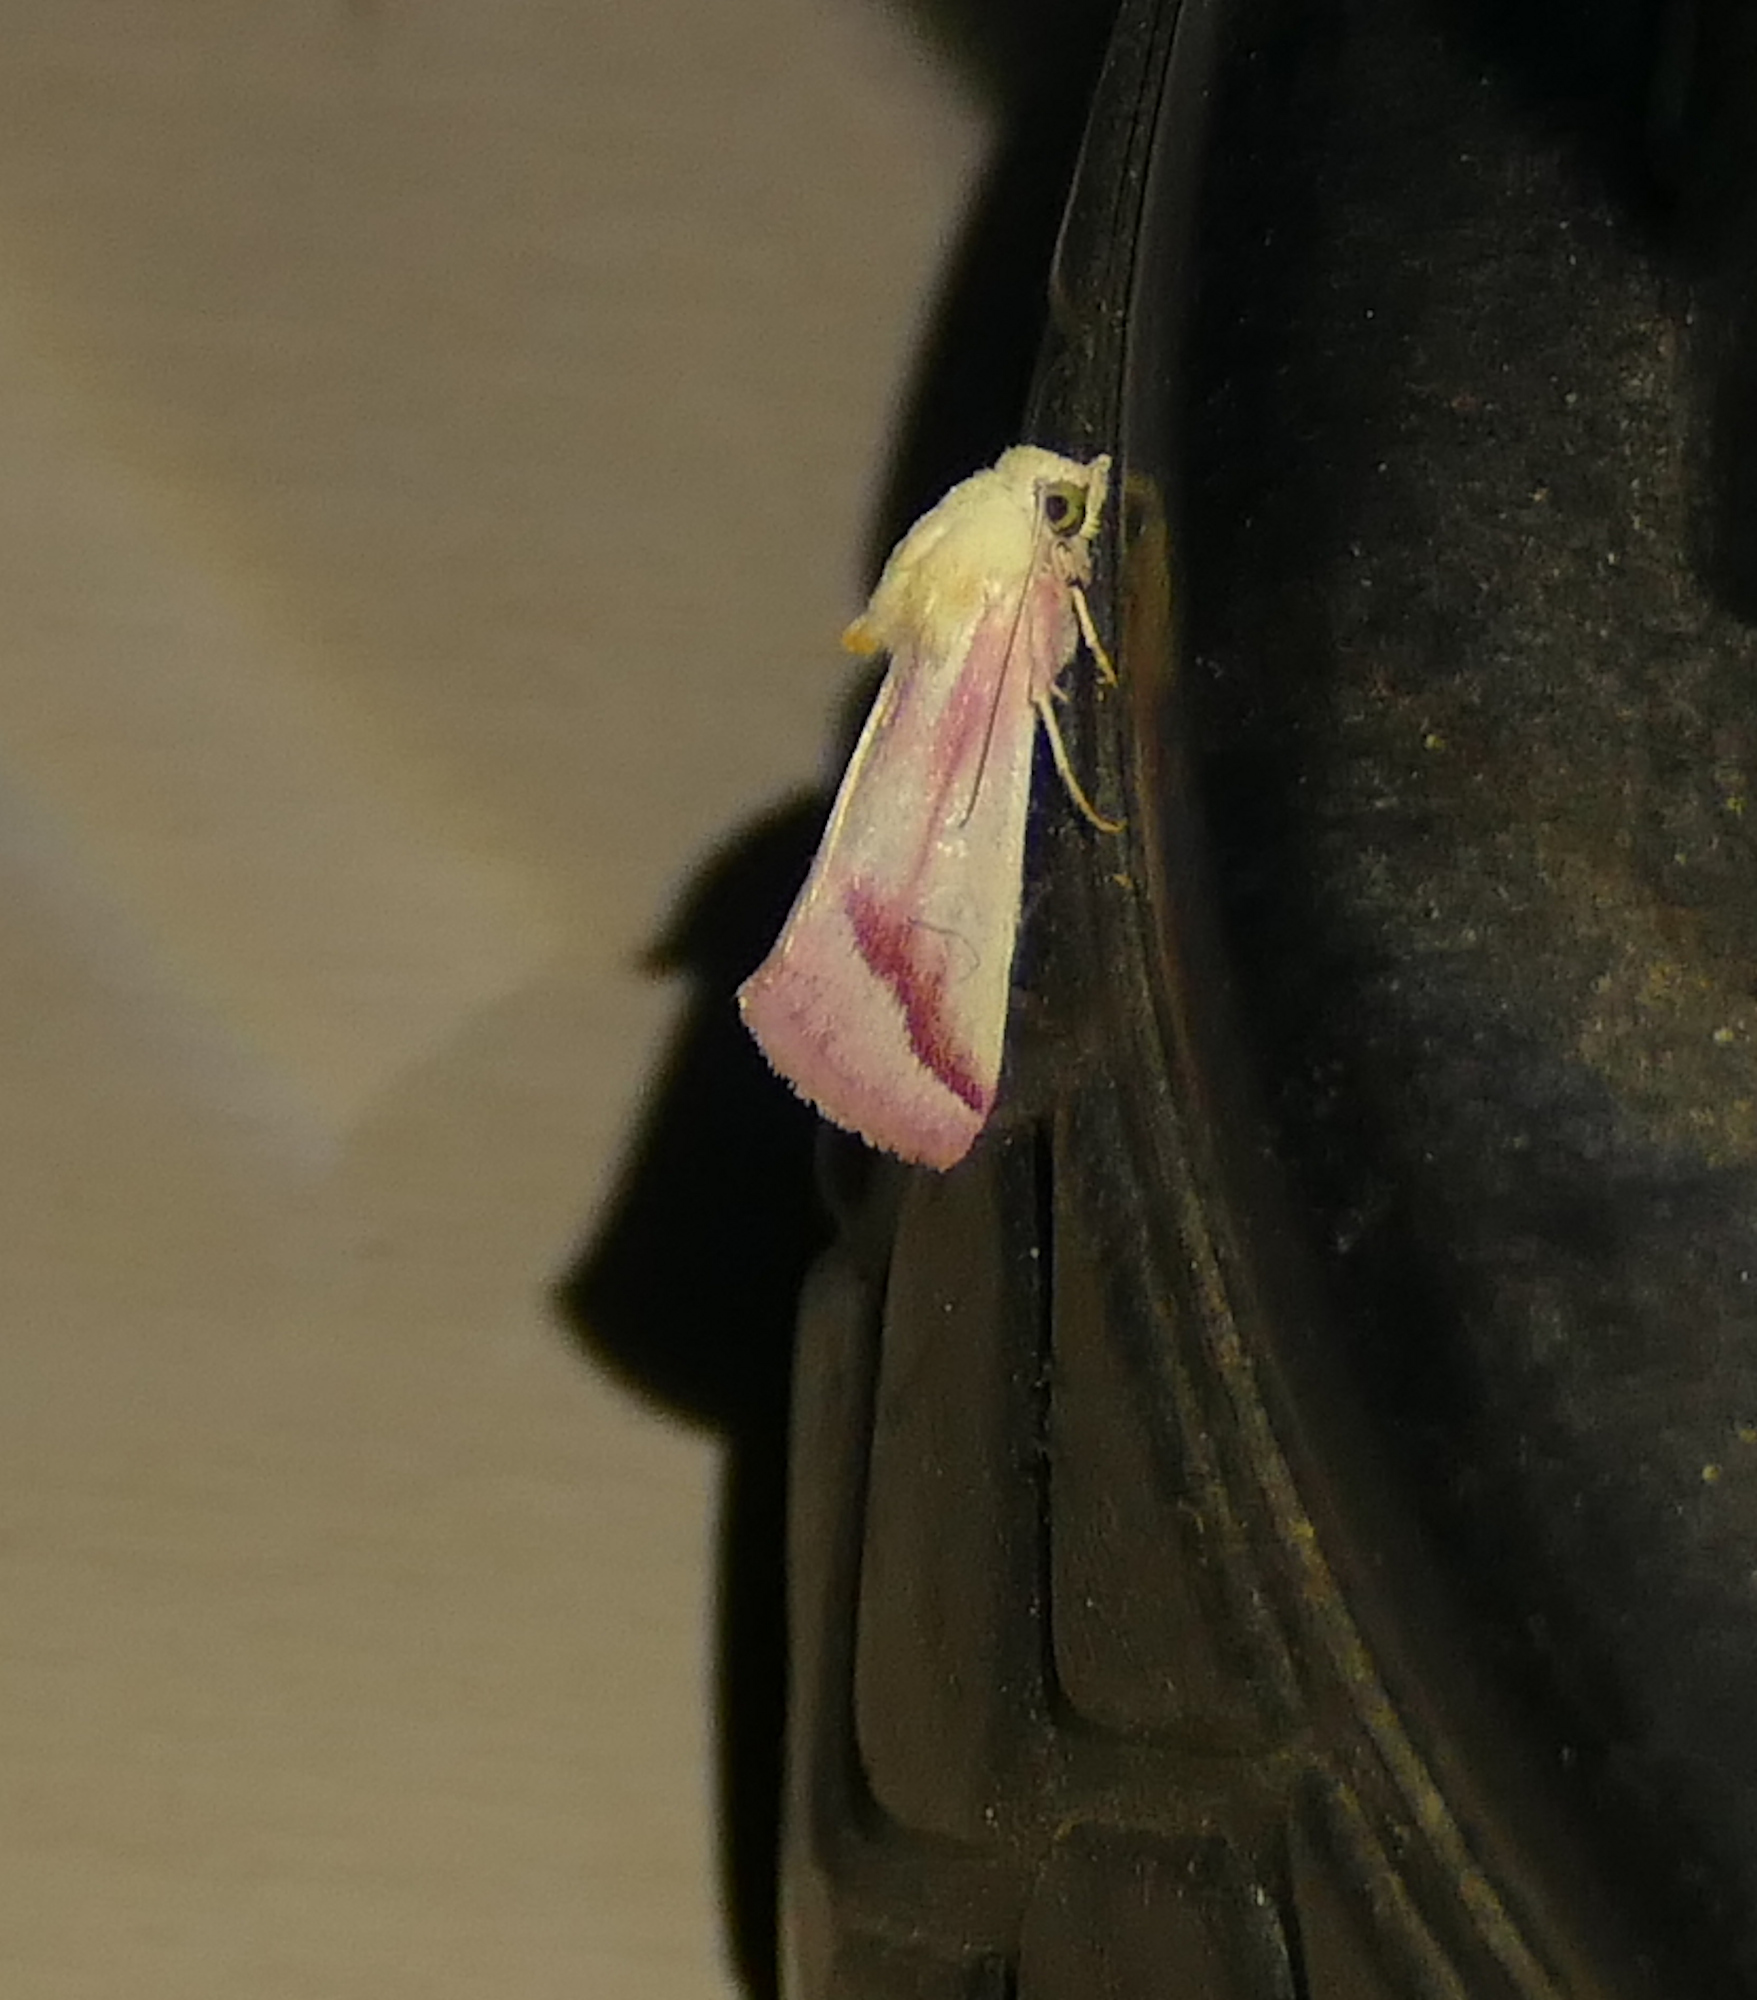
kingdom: Animalia
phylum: Arthropoda
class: Insecta
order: Lepidoptera
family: Noctuidae
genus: Schinia
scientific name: Schinia gaurae
